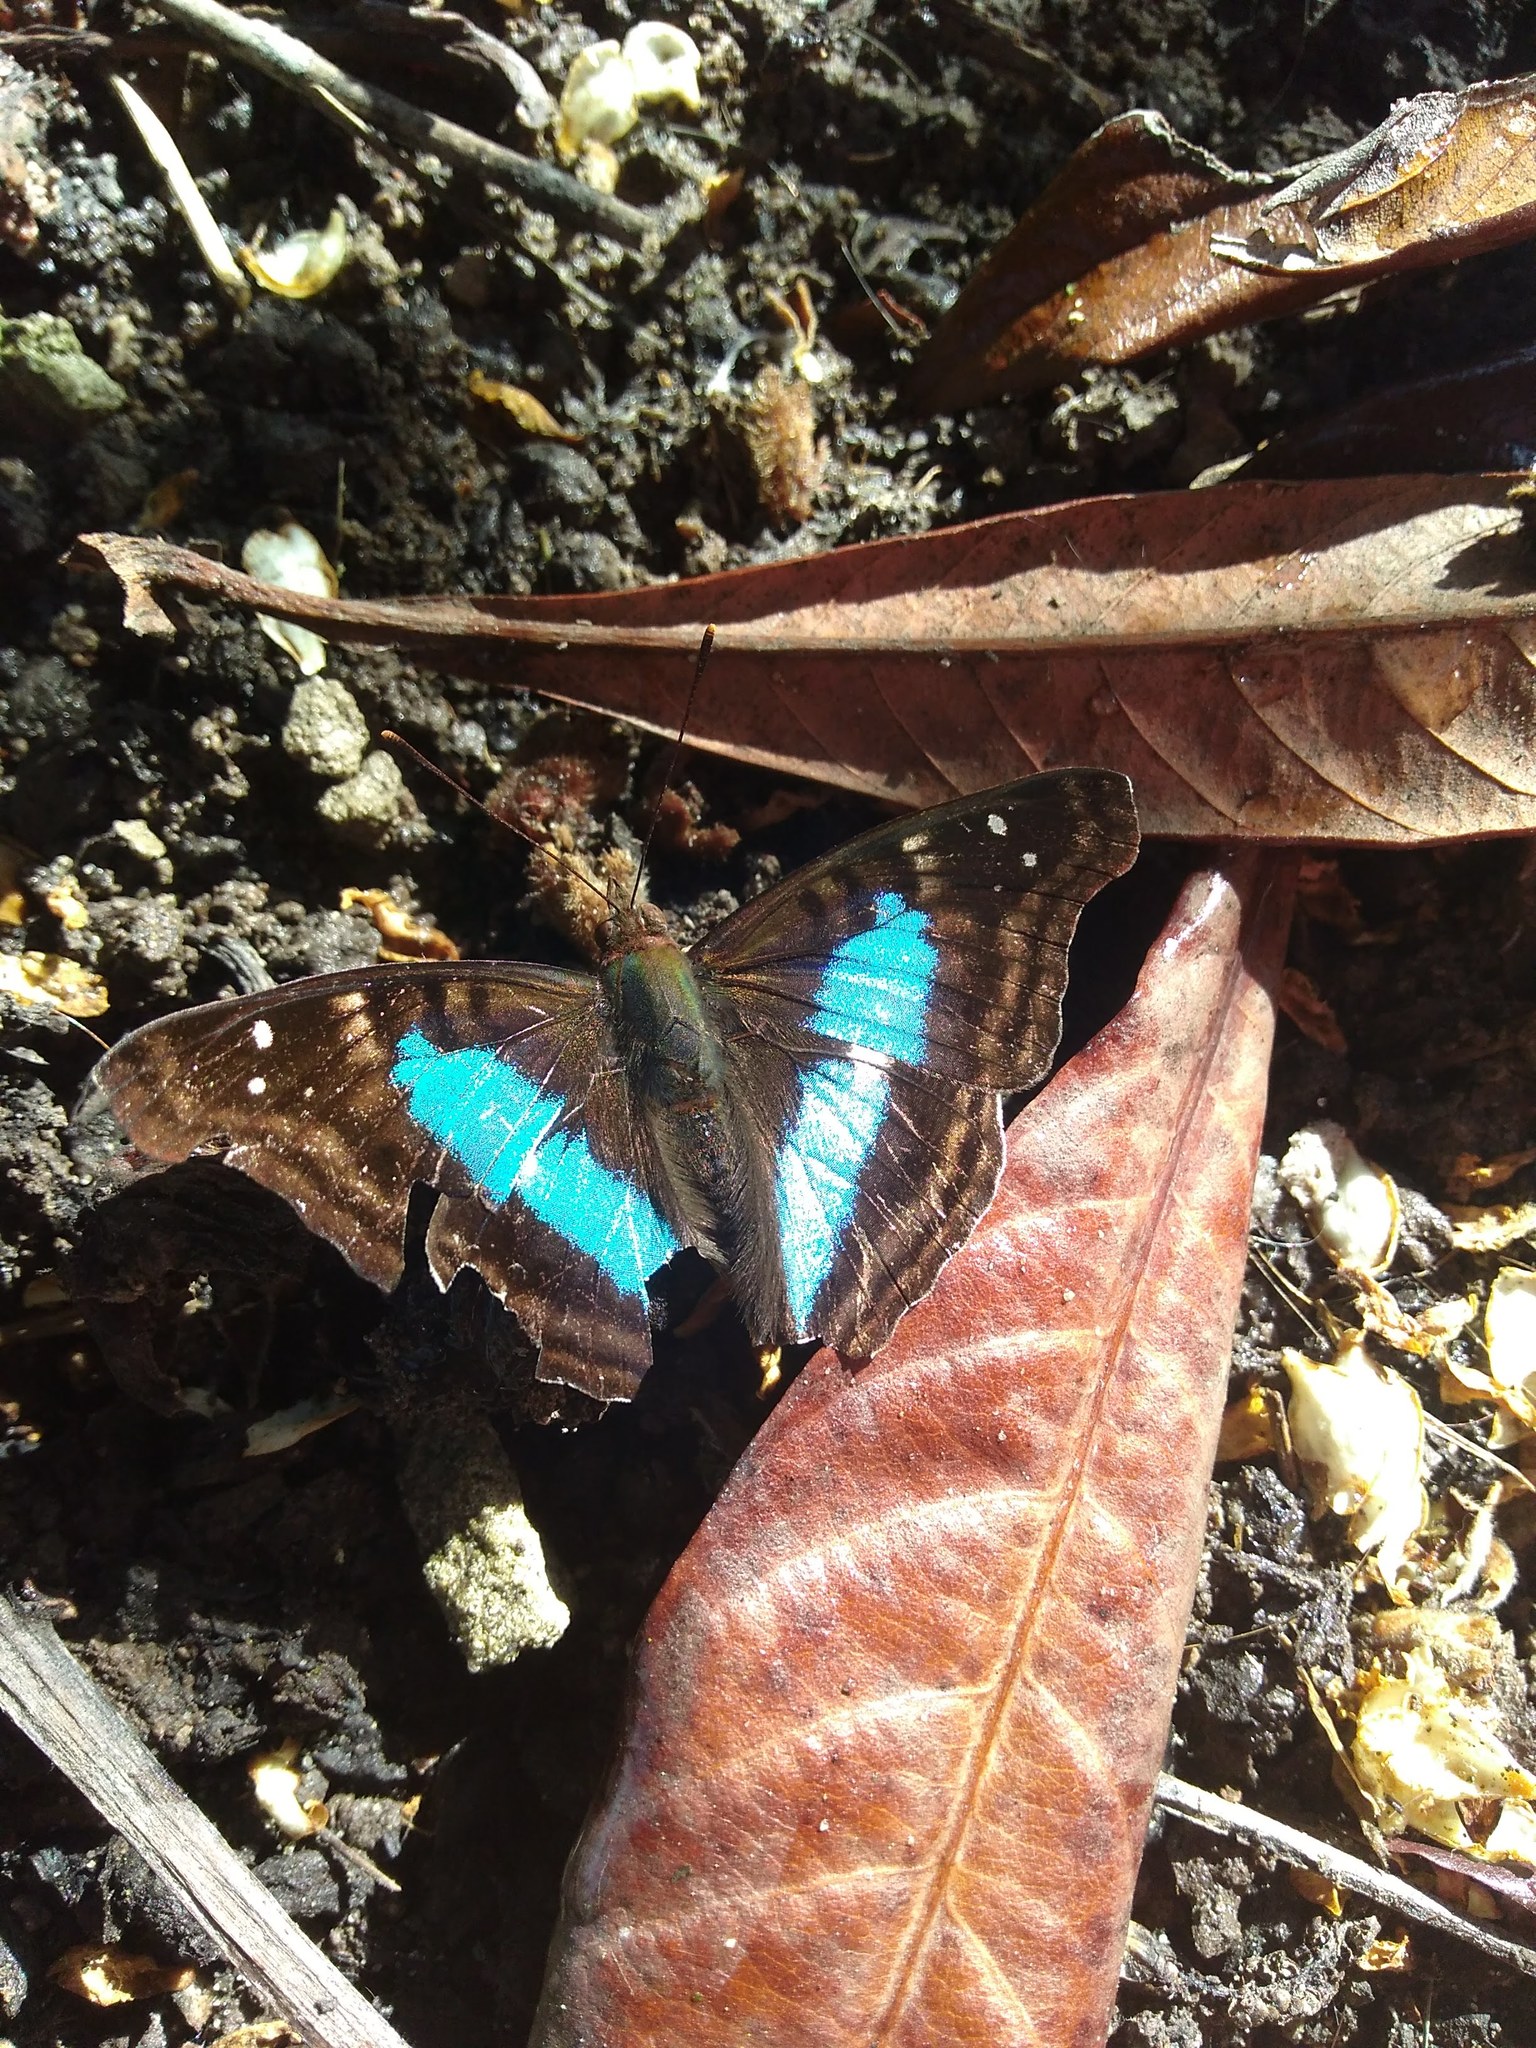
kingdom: Animalia
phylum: Arthropoda
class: Insecta
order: Lepidoptera
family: Nymphalidae
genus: Doxocopa
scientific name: Doxocopa laurentia
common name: Turquoise emperor
